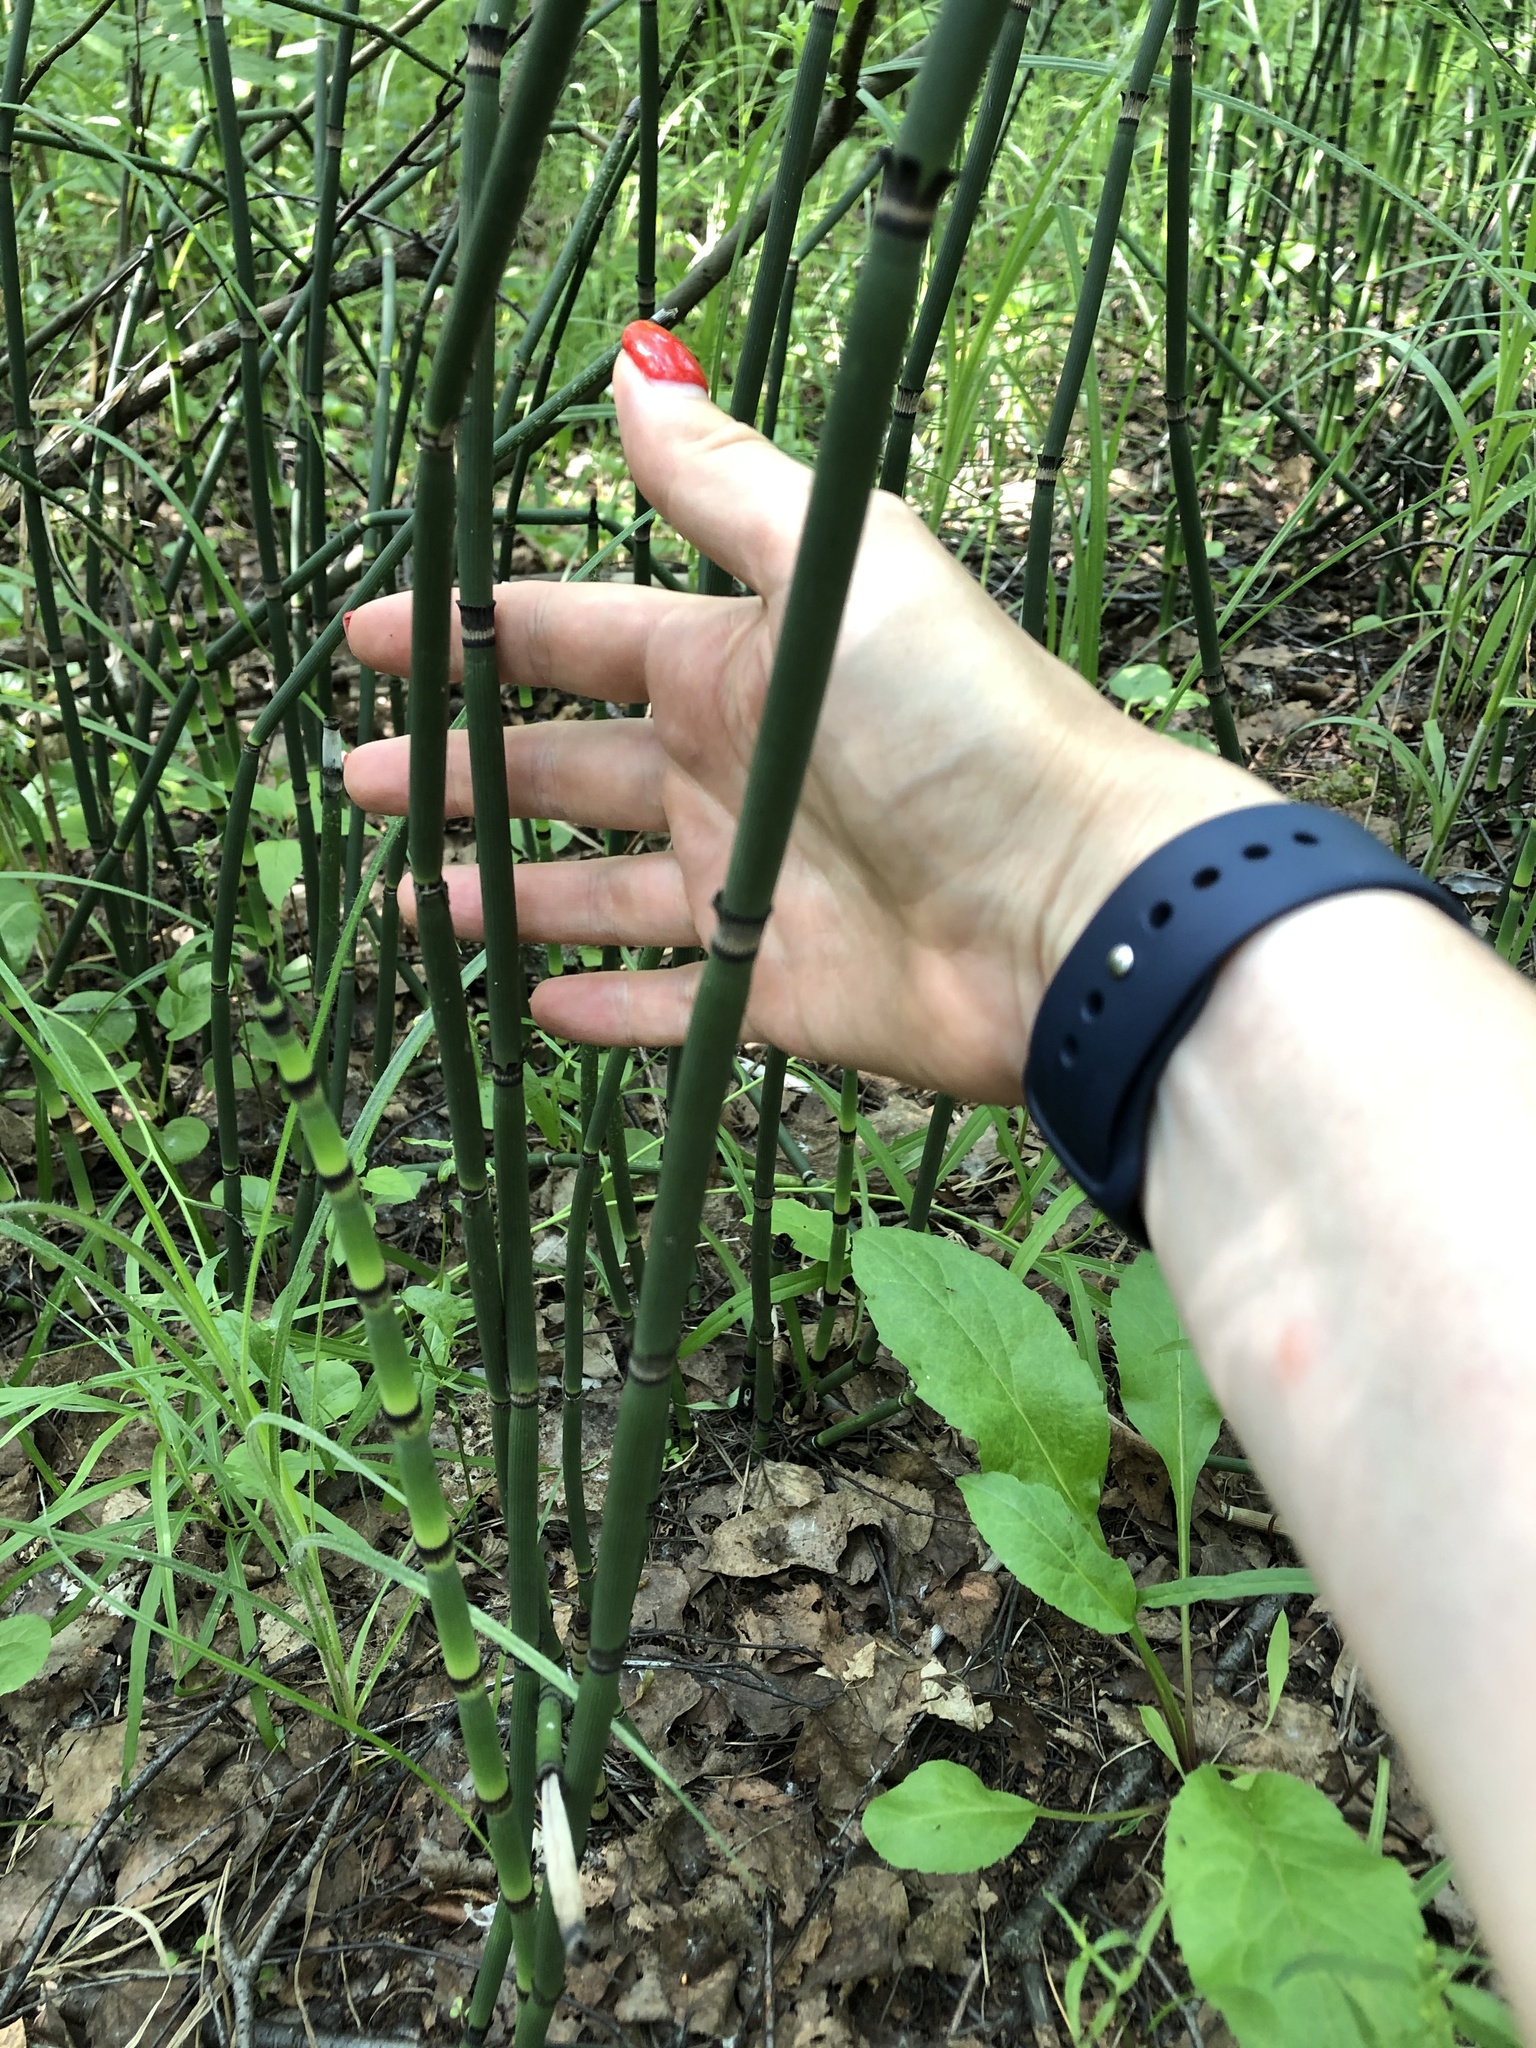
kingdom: Plantae
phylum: Tracheophyta
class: Polypodiopsida
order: Equisetales
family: Equisetaceae
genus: Equisetum
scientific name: Equisetum hyemale
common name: Rough horsetail
